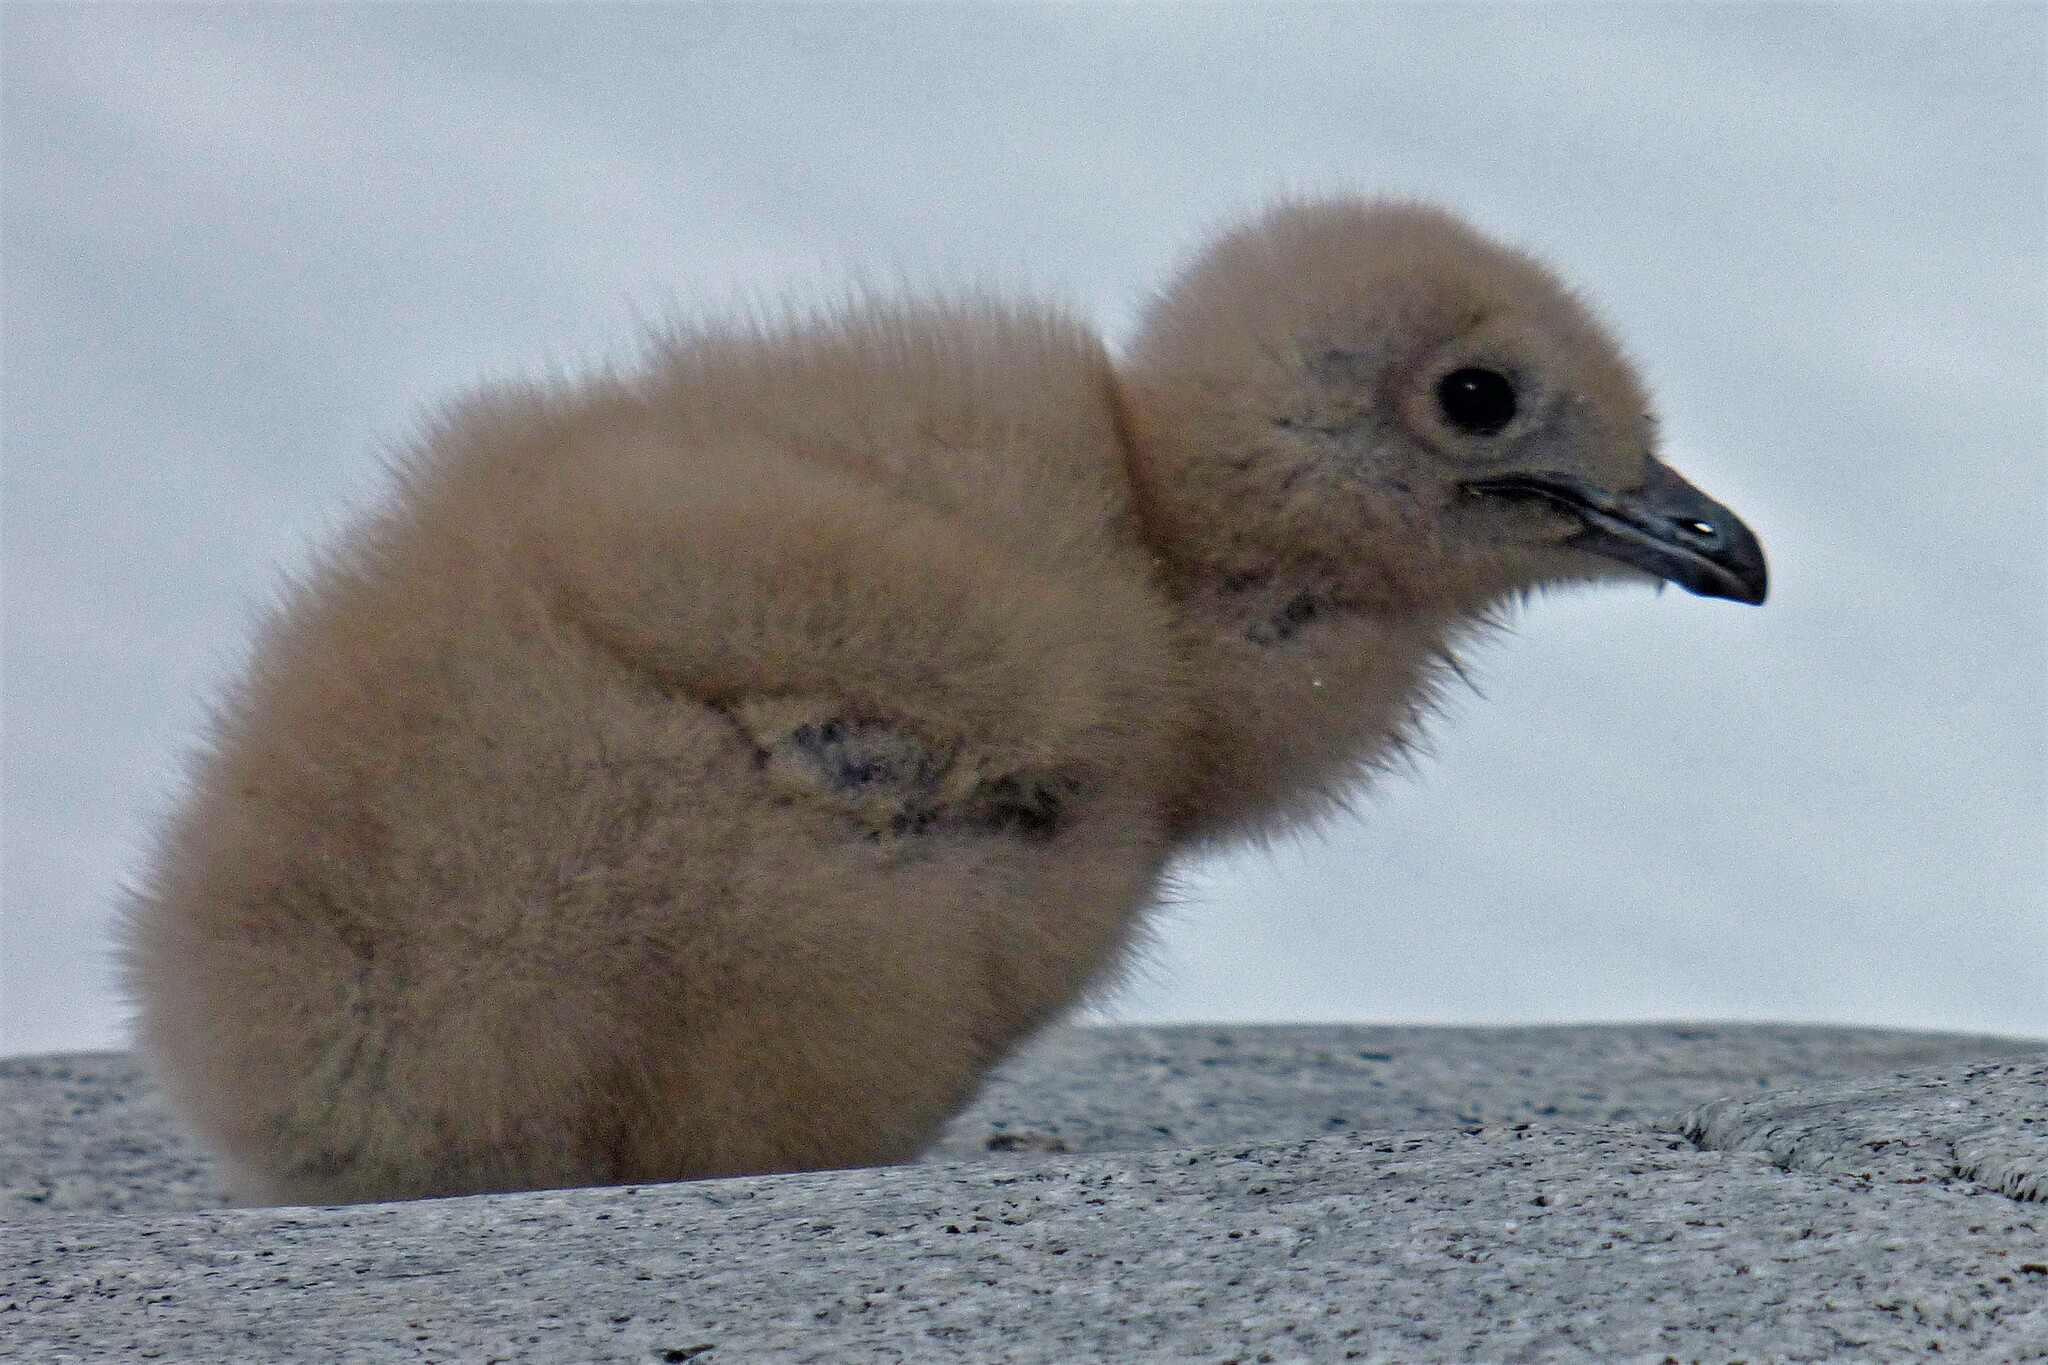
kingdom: Animalia
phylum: Chordata
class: Aves
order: Charadriiformes
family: Stercorariidae
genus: Stercorarius
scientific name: Stercorarius maccormicki
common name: South polar skua
